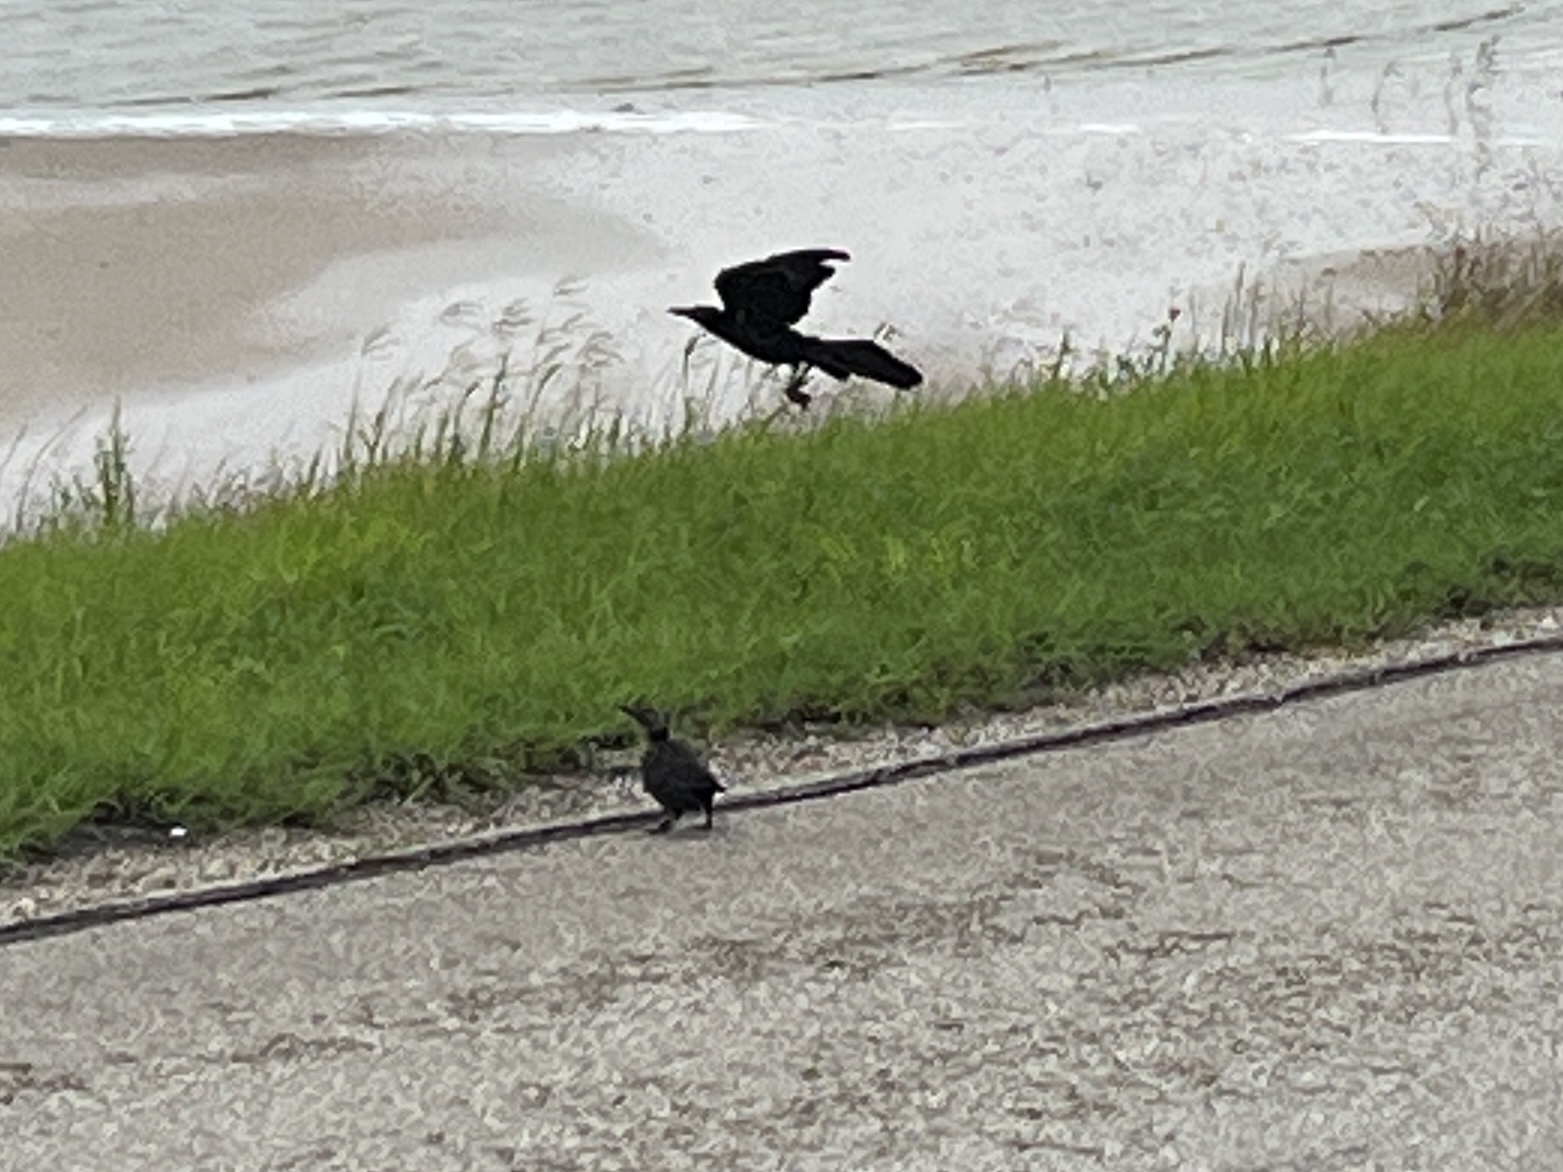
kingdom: Animalia
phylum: Chordata
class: Aves
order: Passeriformes
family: Icteridae
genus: Quiscalus
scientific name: Quiscalus mexicanus
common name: Great-tailed grackle
